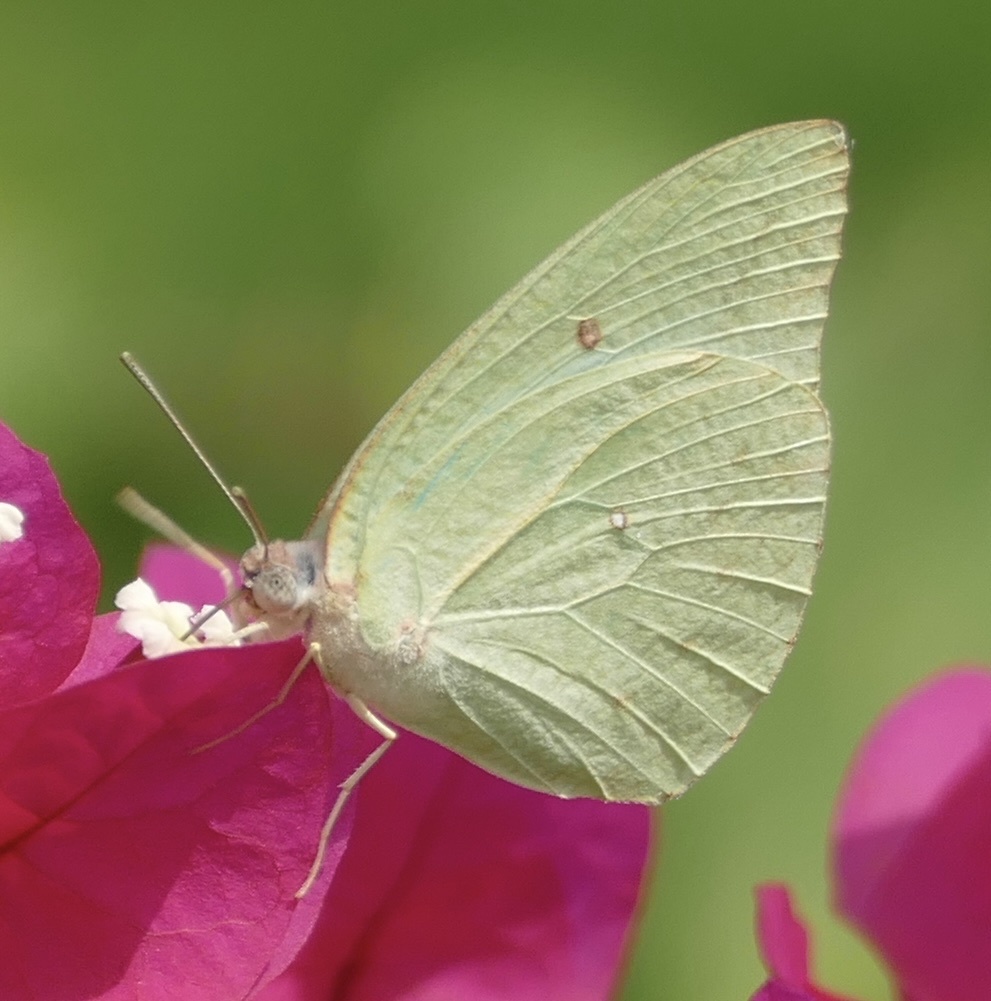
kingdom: Animalia
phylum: Arthropoda
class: Insecta
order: Lepidoptera
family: Pieridae
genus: Catopsilia
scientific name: Catopsilia florella
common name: African migrant
